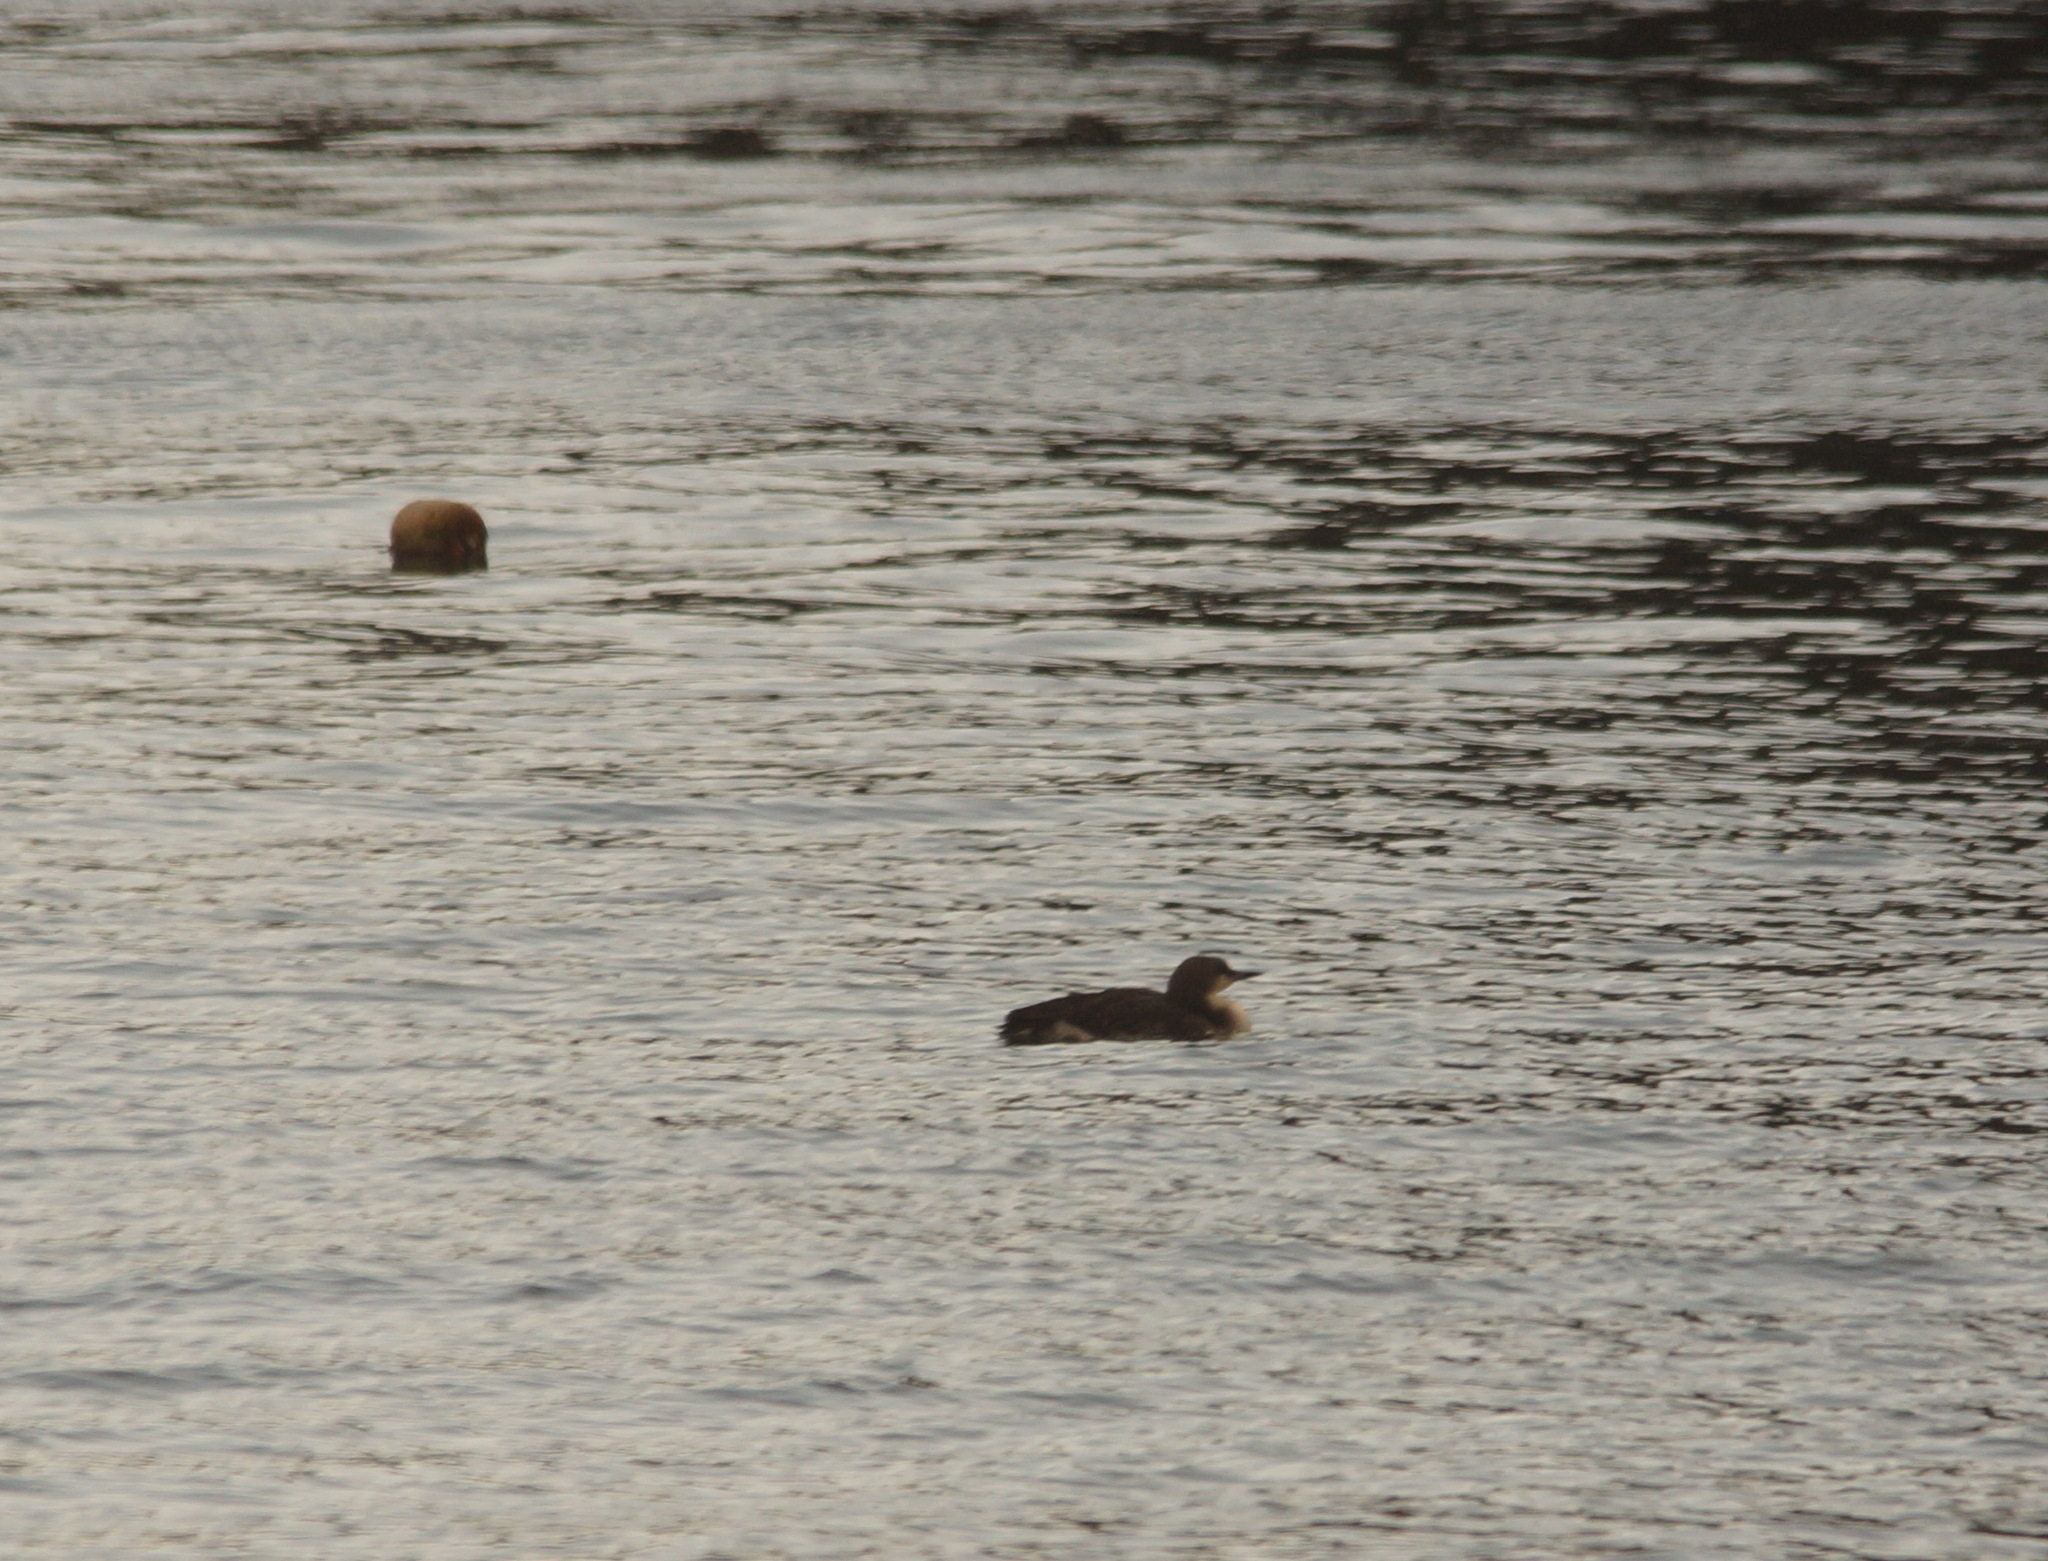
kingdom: Animalia
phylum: Chordata
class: Aves
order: Gaviiformes
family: Gaviidae
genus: Gavia
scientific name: Gavia arctica
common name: Black-throated loon
